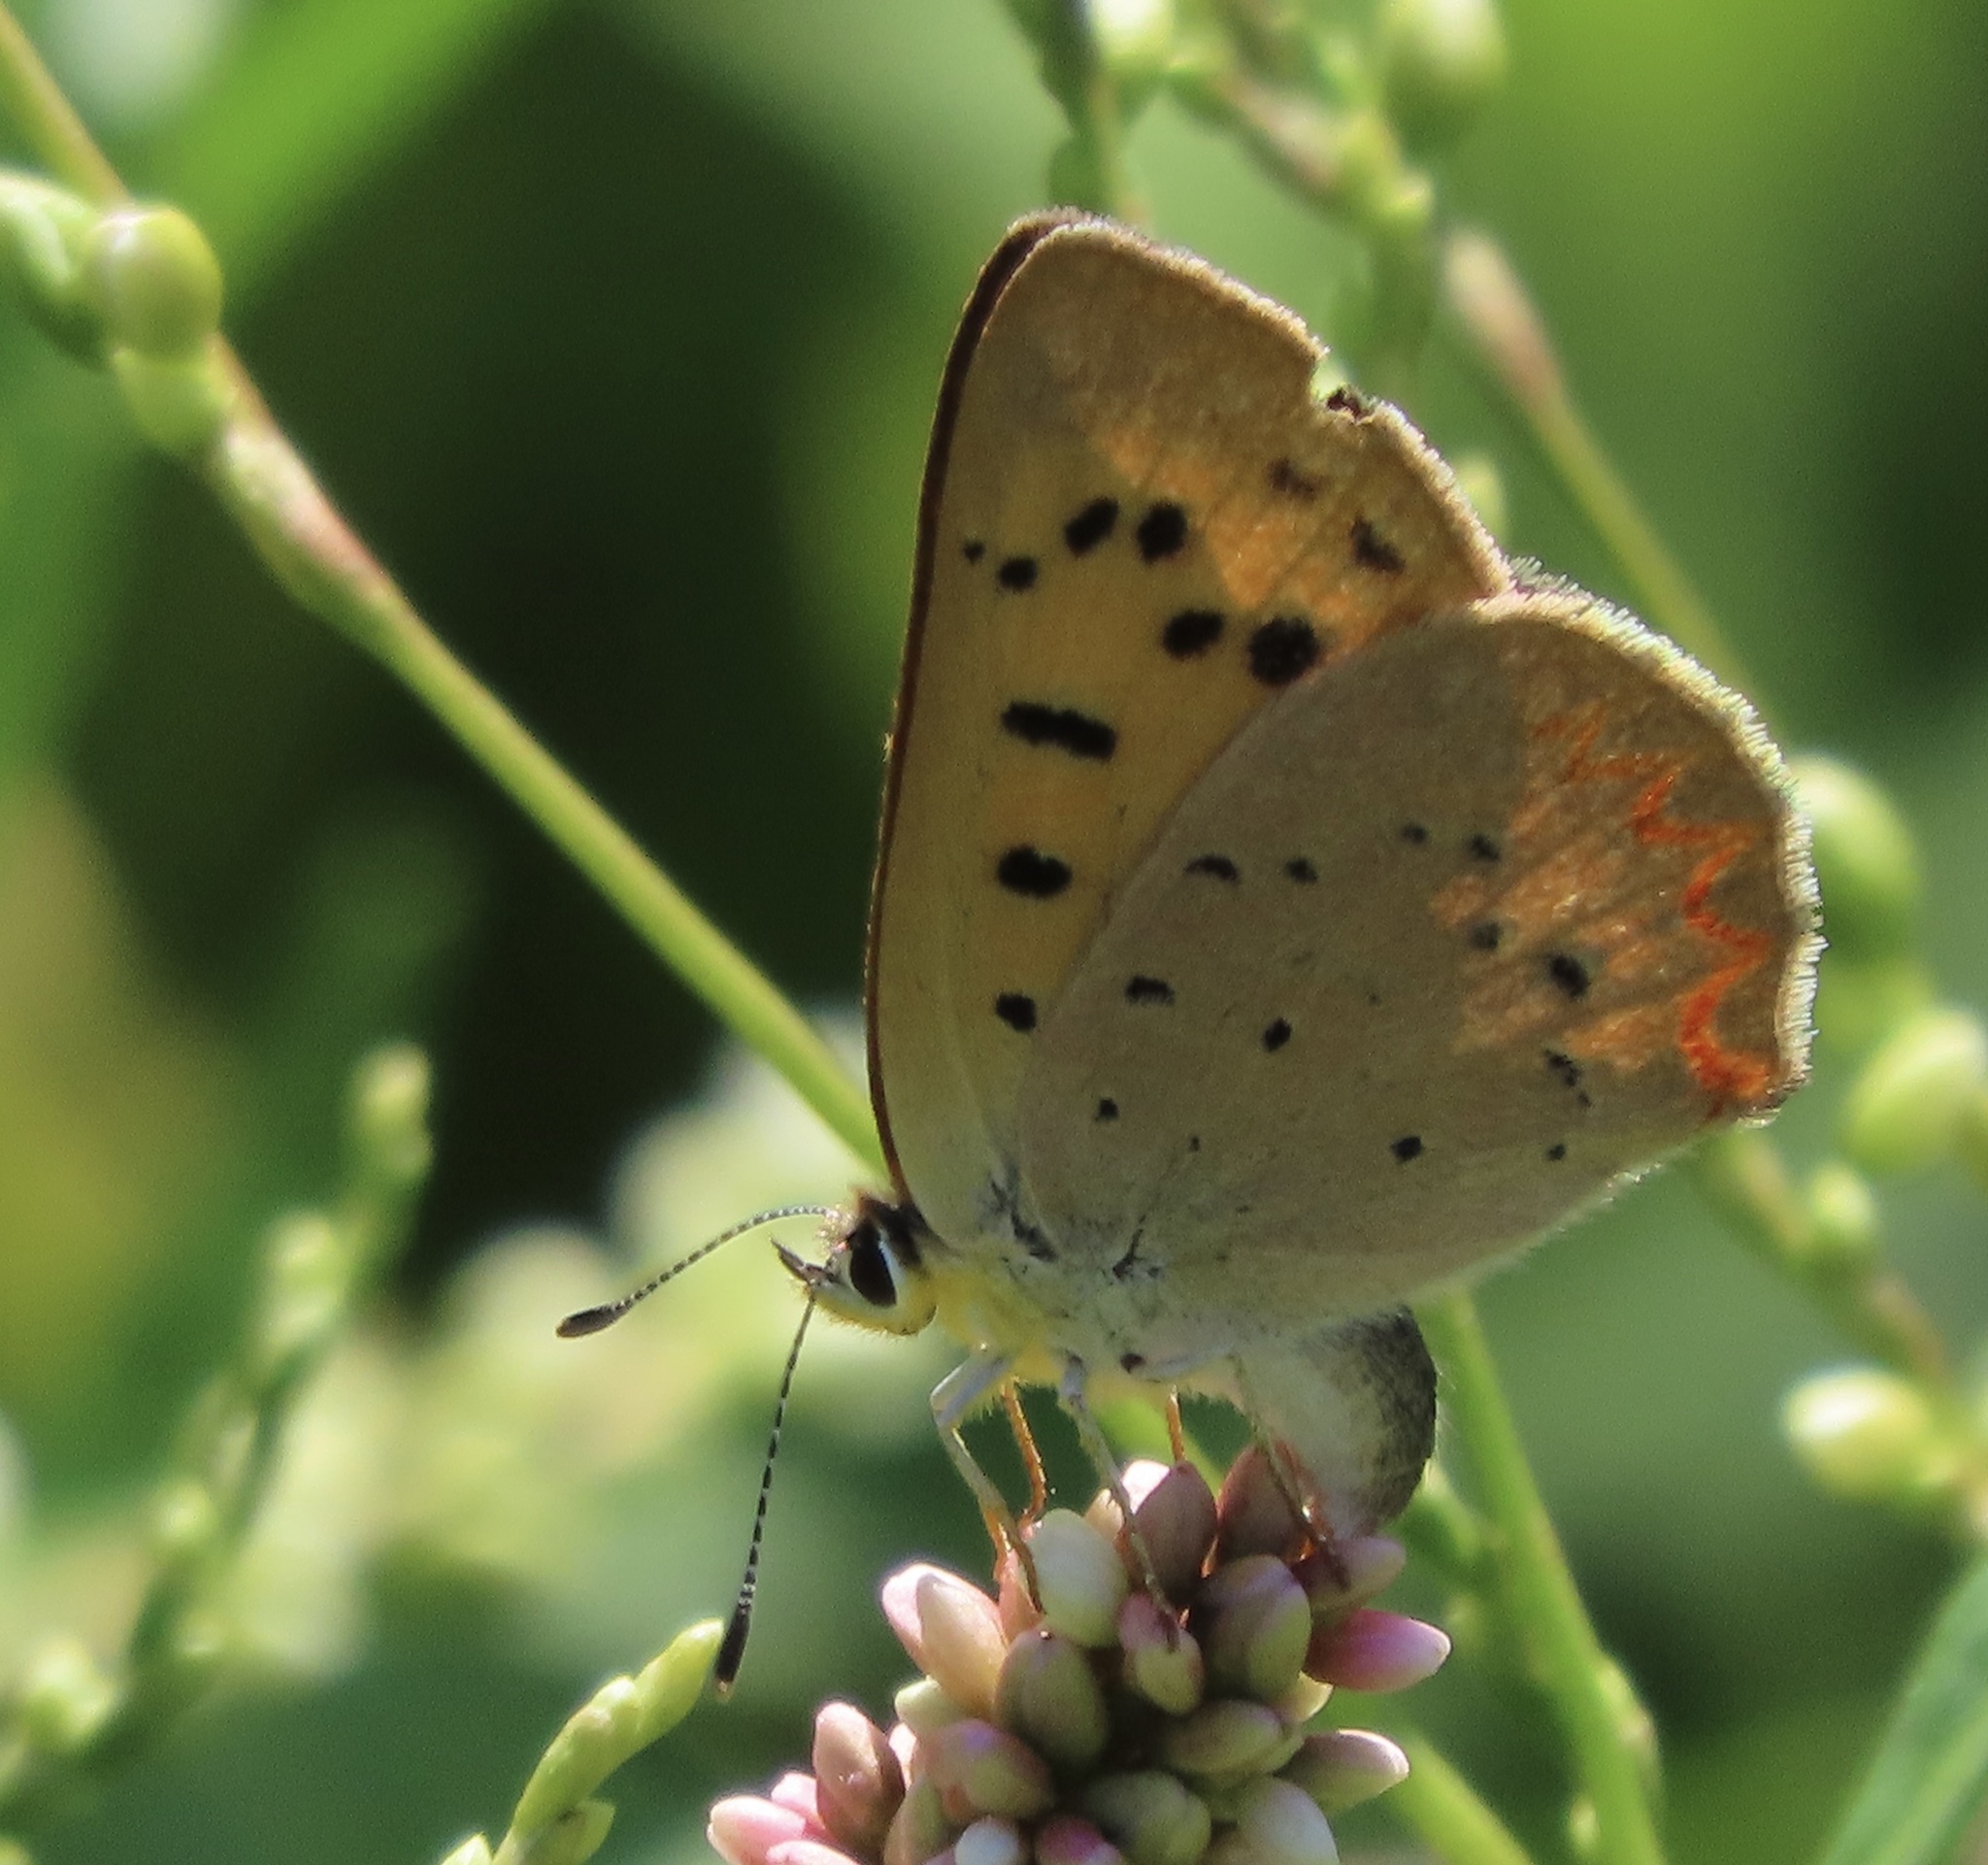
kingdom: Animalia
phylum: Arthropoda
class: Insecta
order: Lepidoptera
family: Lycaenidae
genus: Tharsalea
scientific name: Tharsalea helloides
